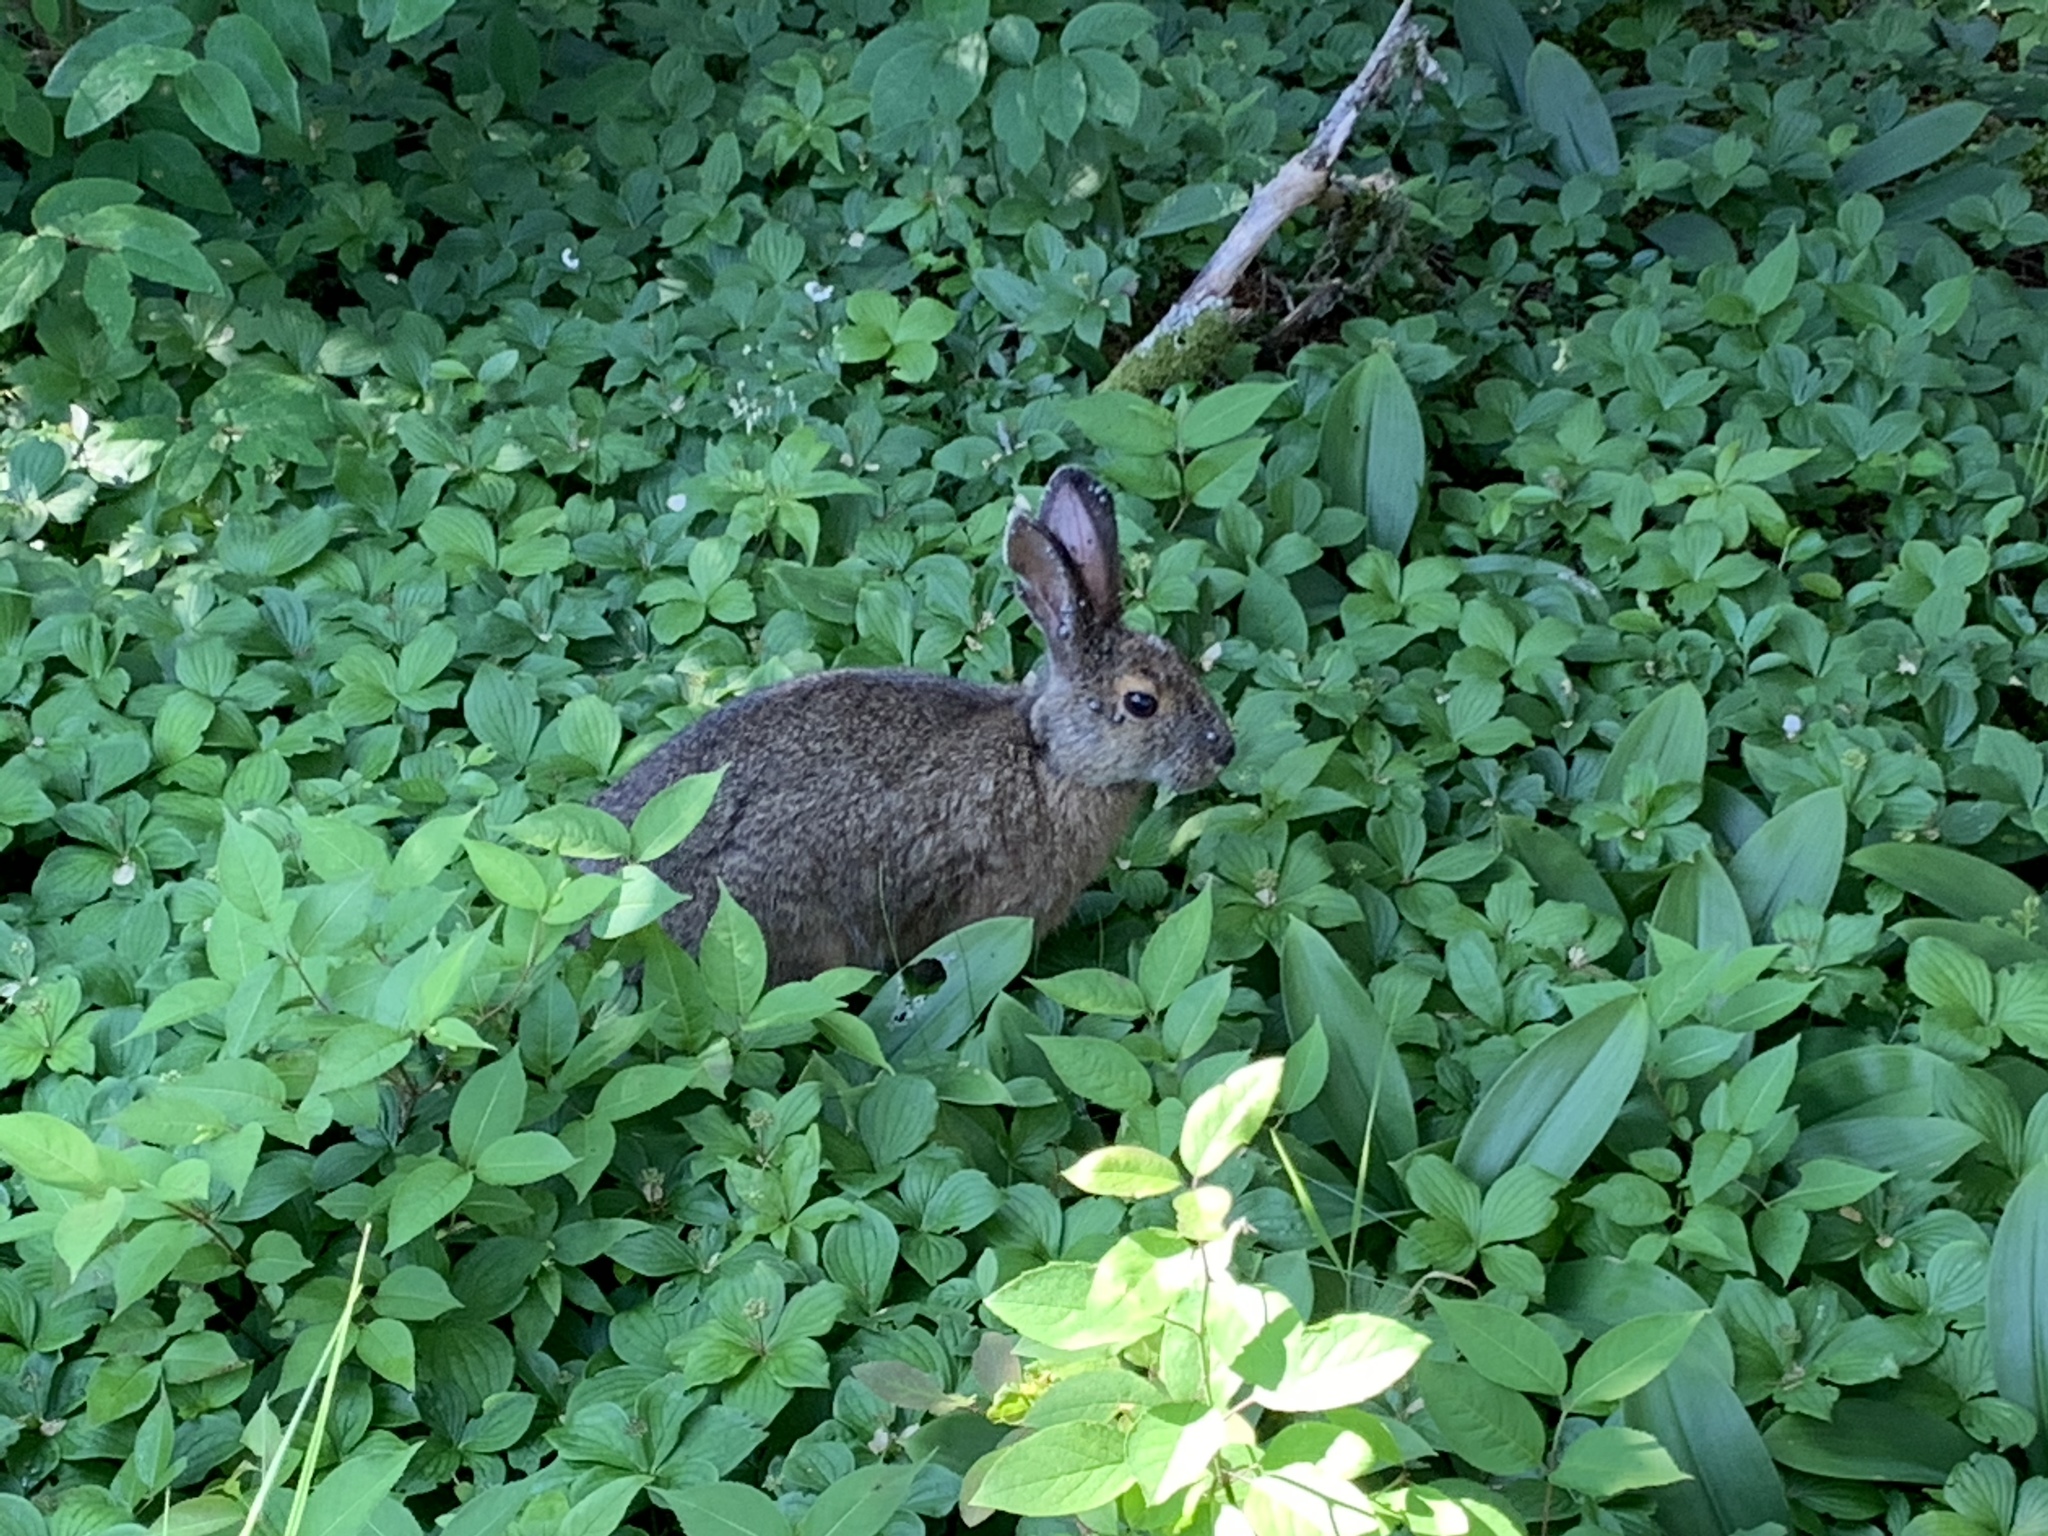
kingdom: Animalia
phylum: Chordata
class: Mammalia
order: Lagomorpha
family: Leporidae
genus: Lepus
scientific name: Lepus americanus
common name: Snowshoe hare
